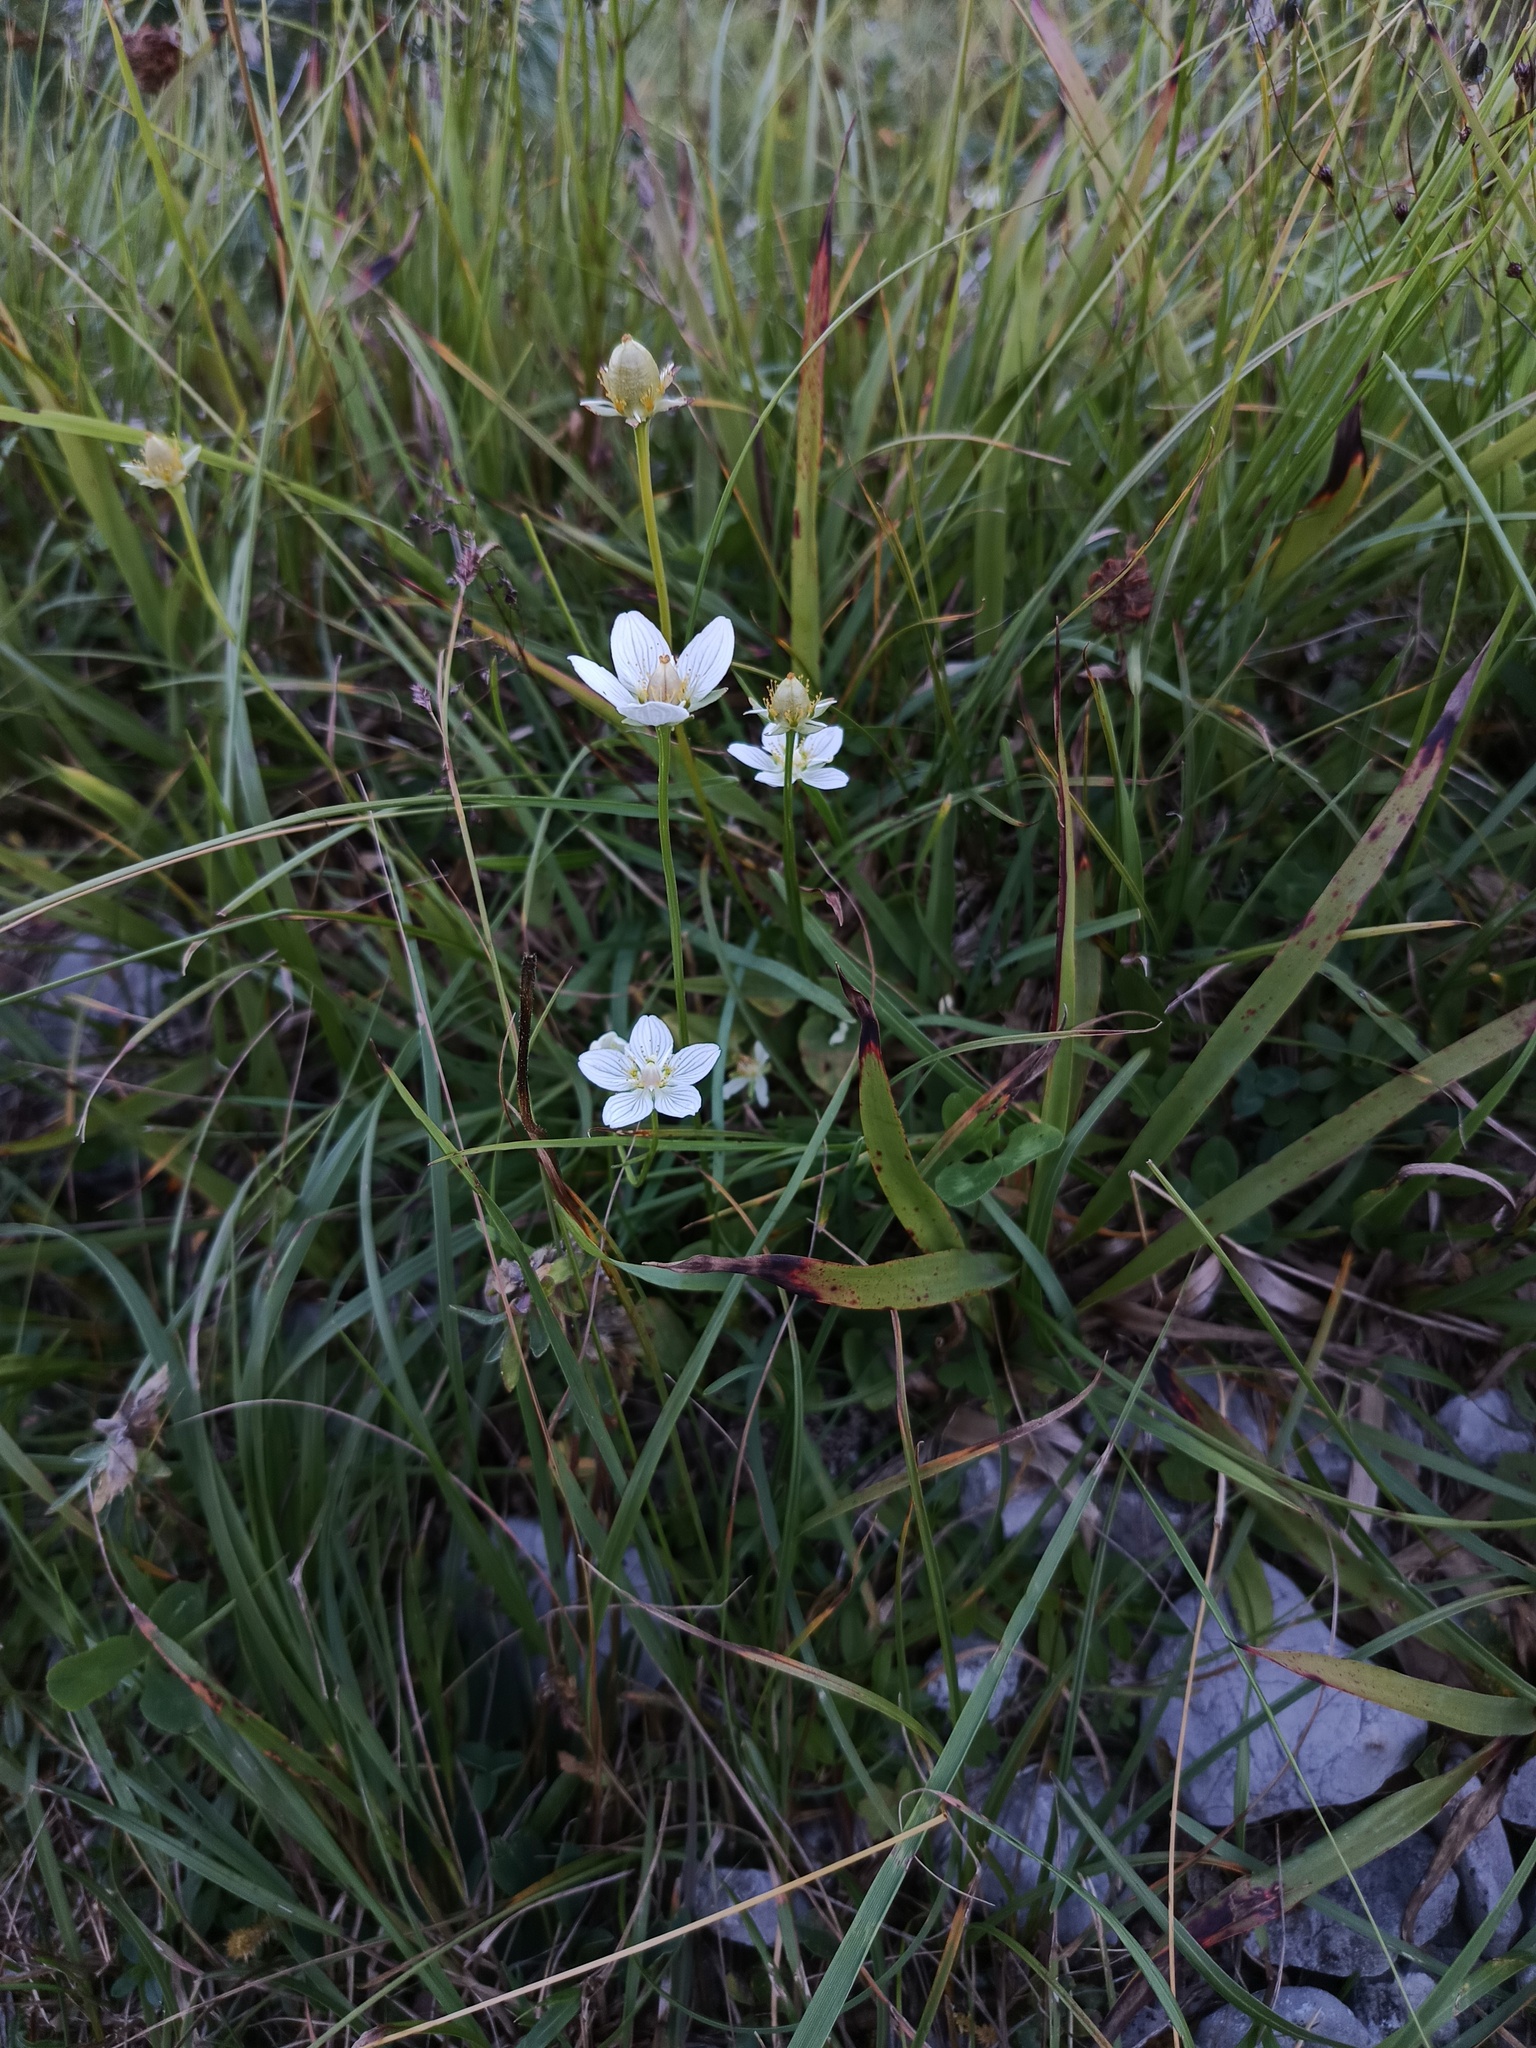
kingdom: Plantae
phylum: Tracheophyta
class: Magnoliopsida
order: Celastrales
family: Parnassiaceae
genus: Parnassia
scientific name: Parnassia palustris
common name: Grass-of-parnassus
